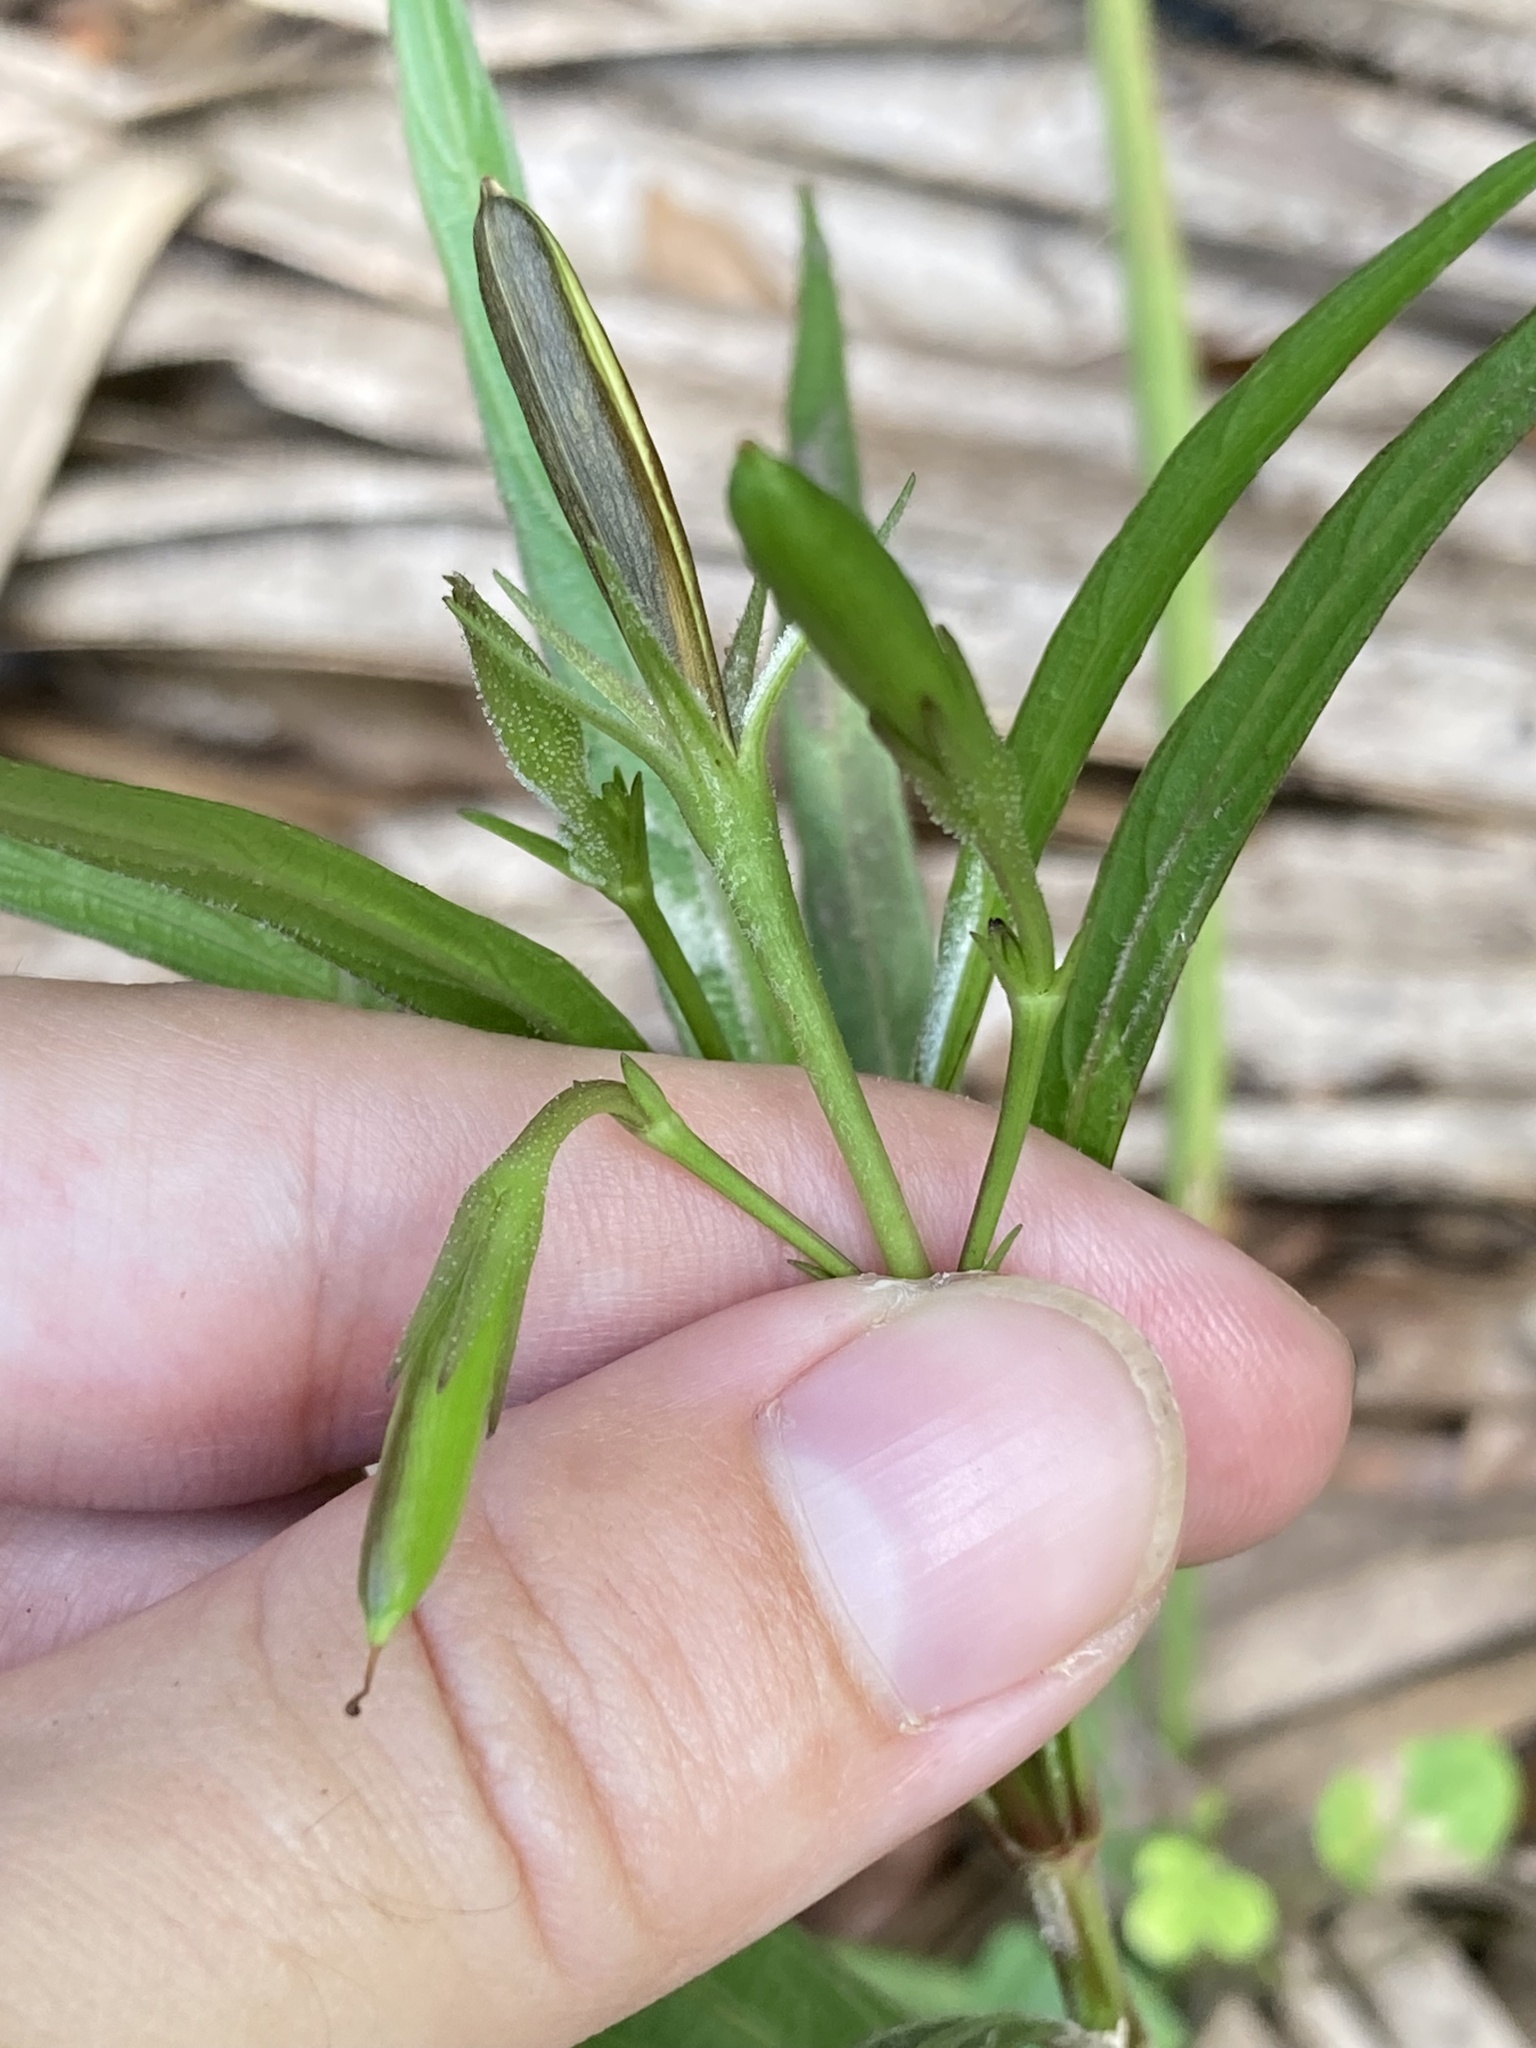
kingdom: Plantae
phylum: Tracheophyta
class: Magnoliopsida
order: Lamiales
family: Acanthaceae
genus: Ruellia
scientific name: Ruellia simplex
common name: Softseed wild petunia
